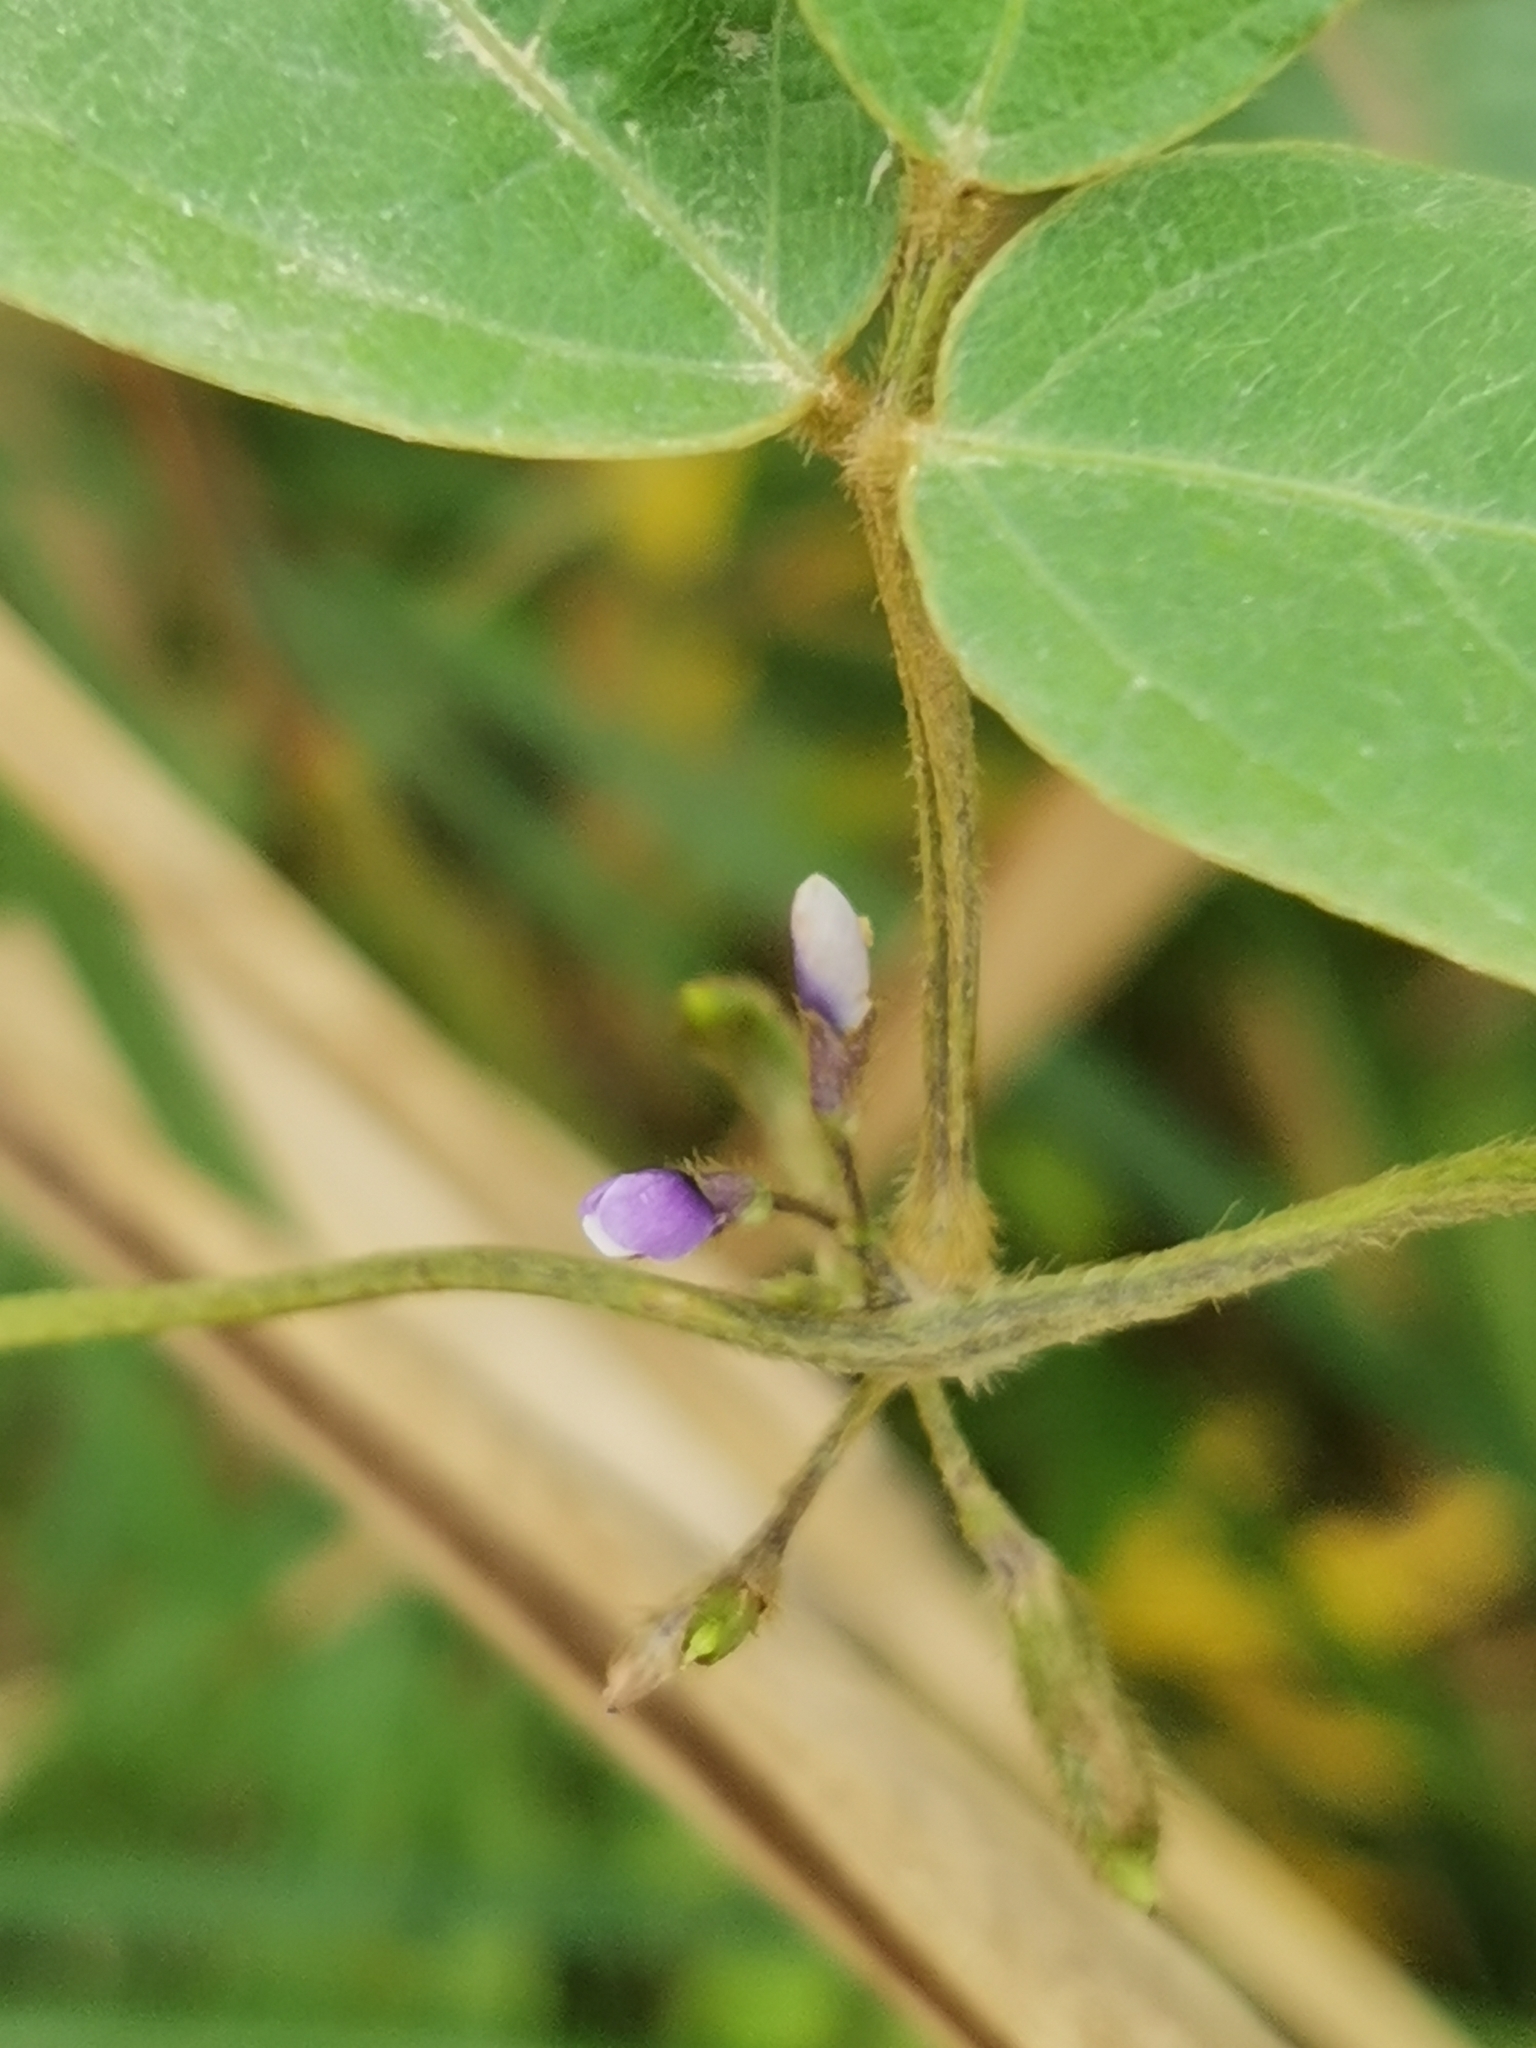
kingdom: Plantae
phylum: Tracheophyta
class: Magnoliopsida
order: Fabales
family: Fabaceae
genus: Glycine
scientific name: Glycine max
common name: Soya-bean
